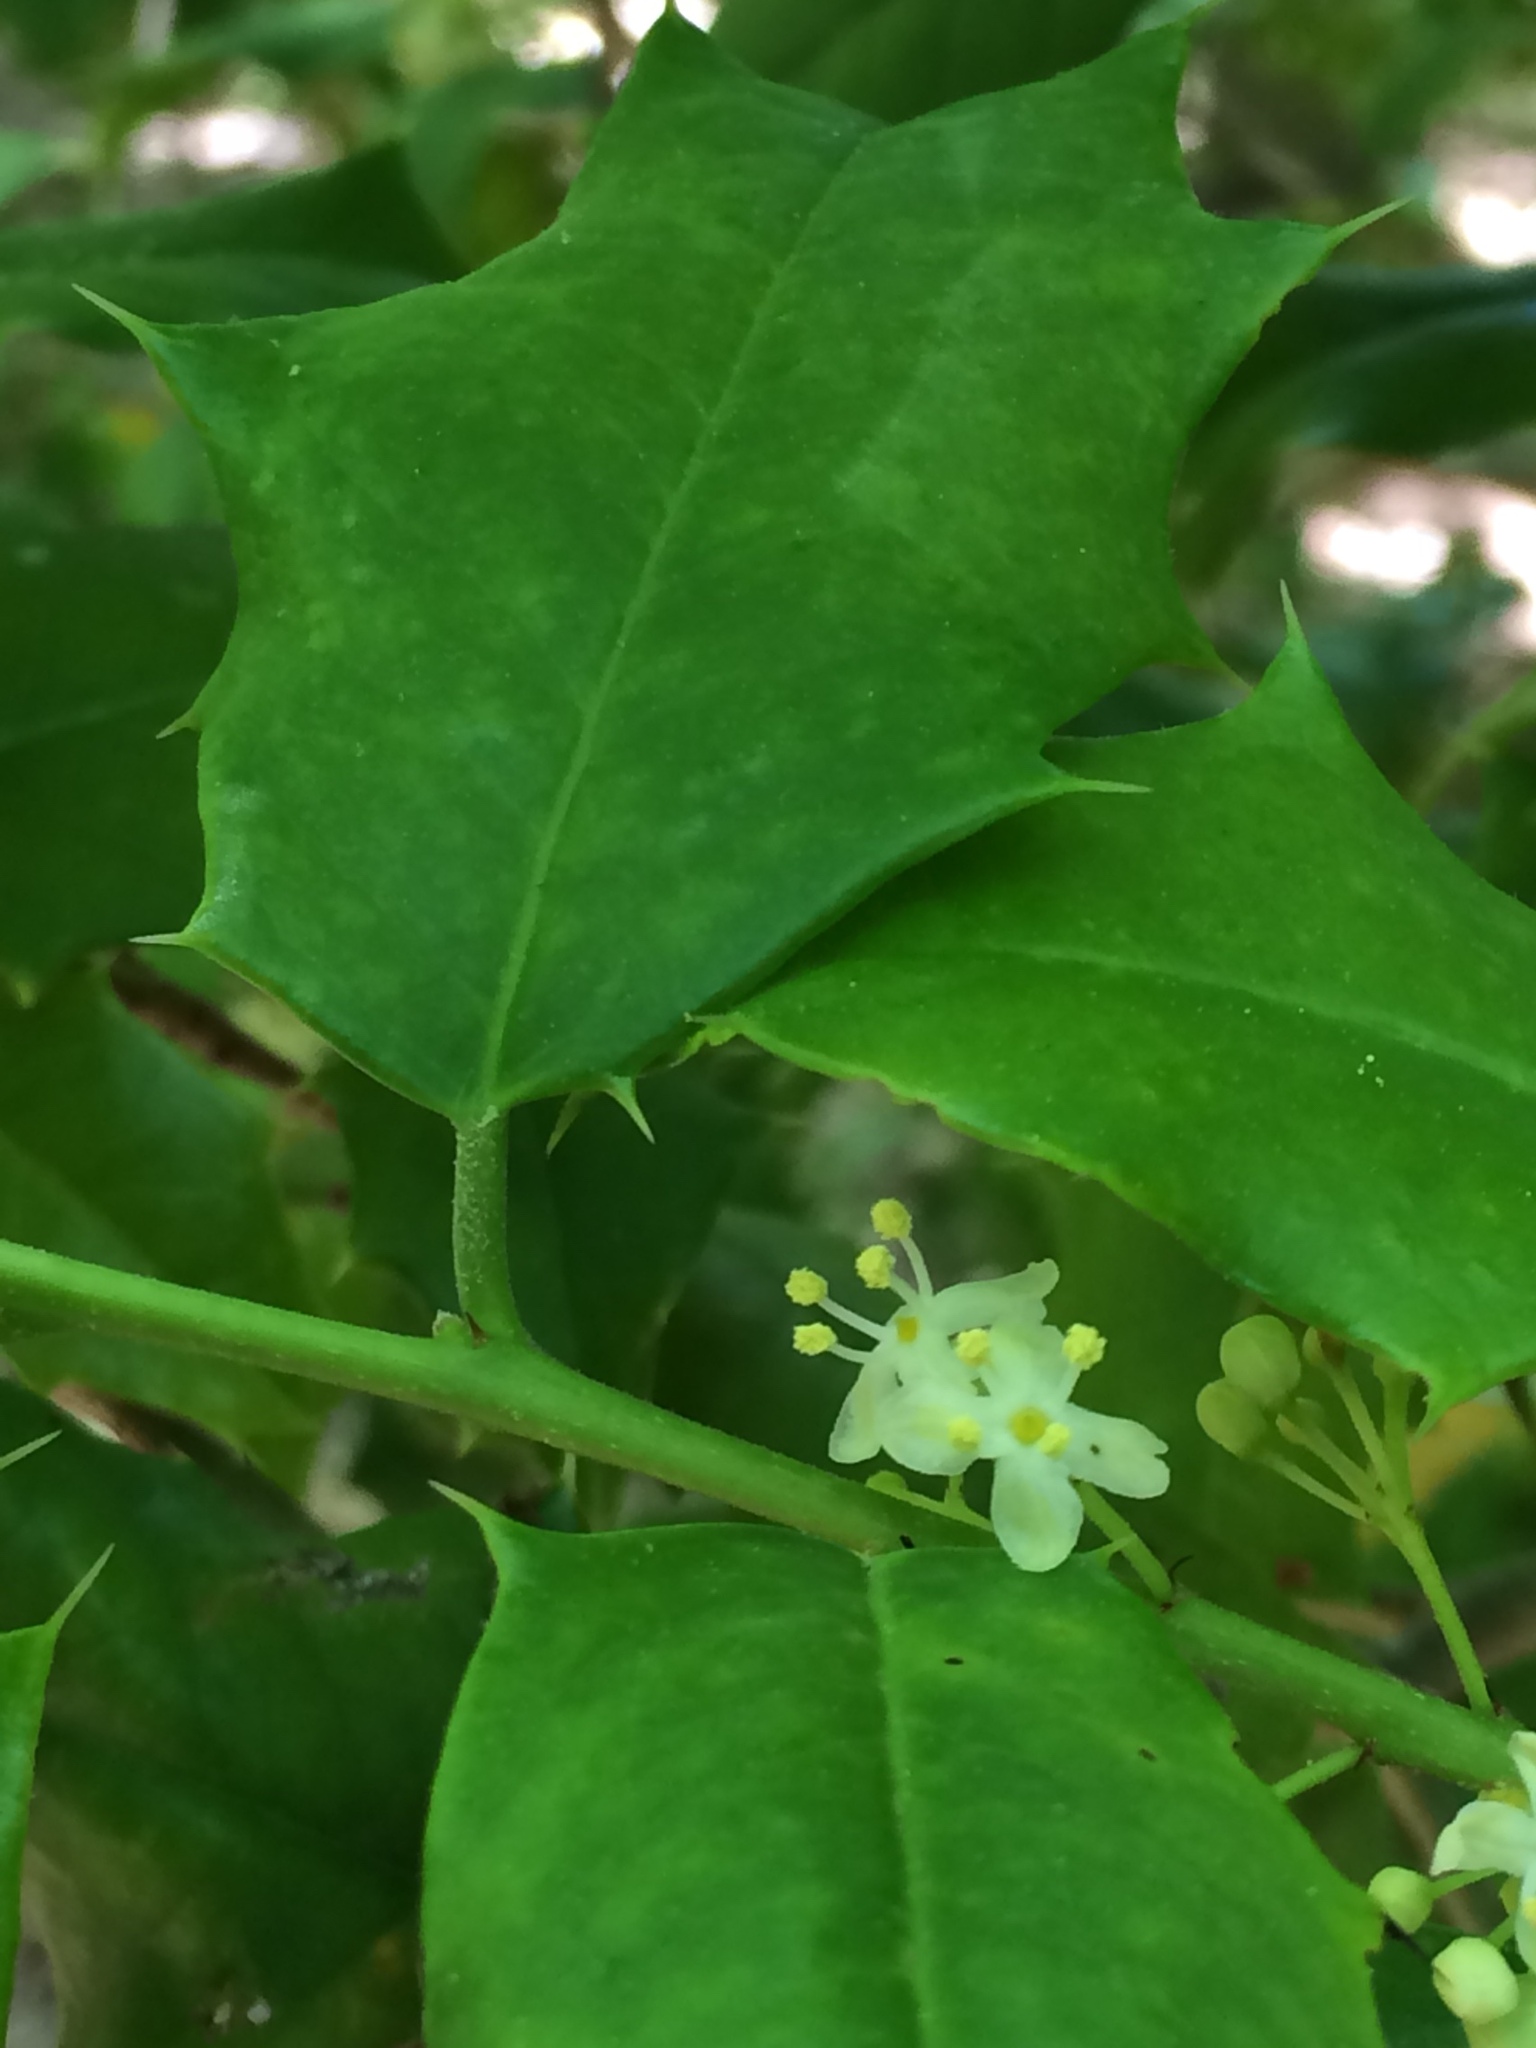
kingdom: Plantae
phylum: Tracheophyta
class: Magnoliopsida
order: Aquifoliales
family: Aquifoliaceae
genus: Ilex
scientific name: Ilex opaca
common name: American holly
